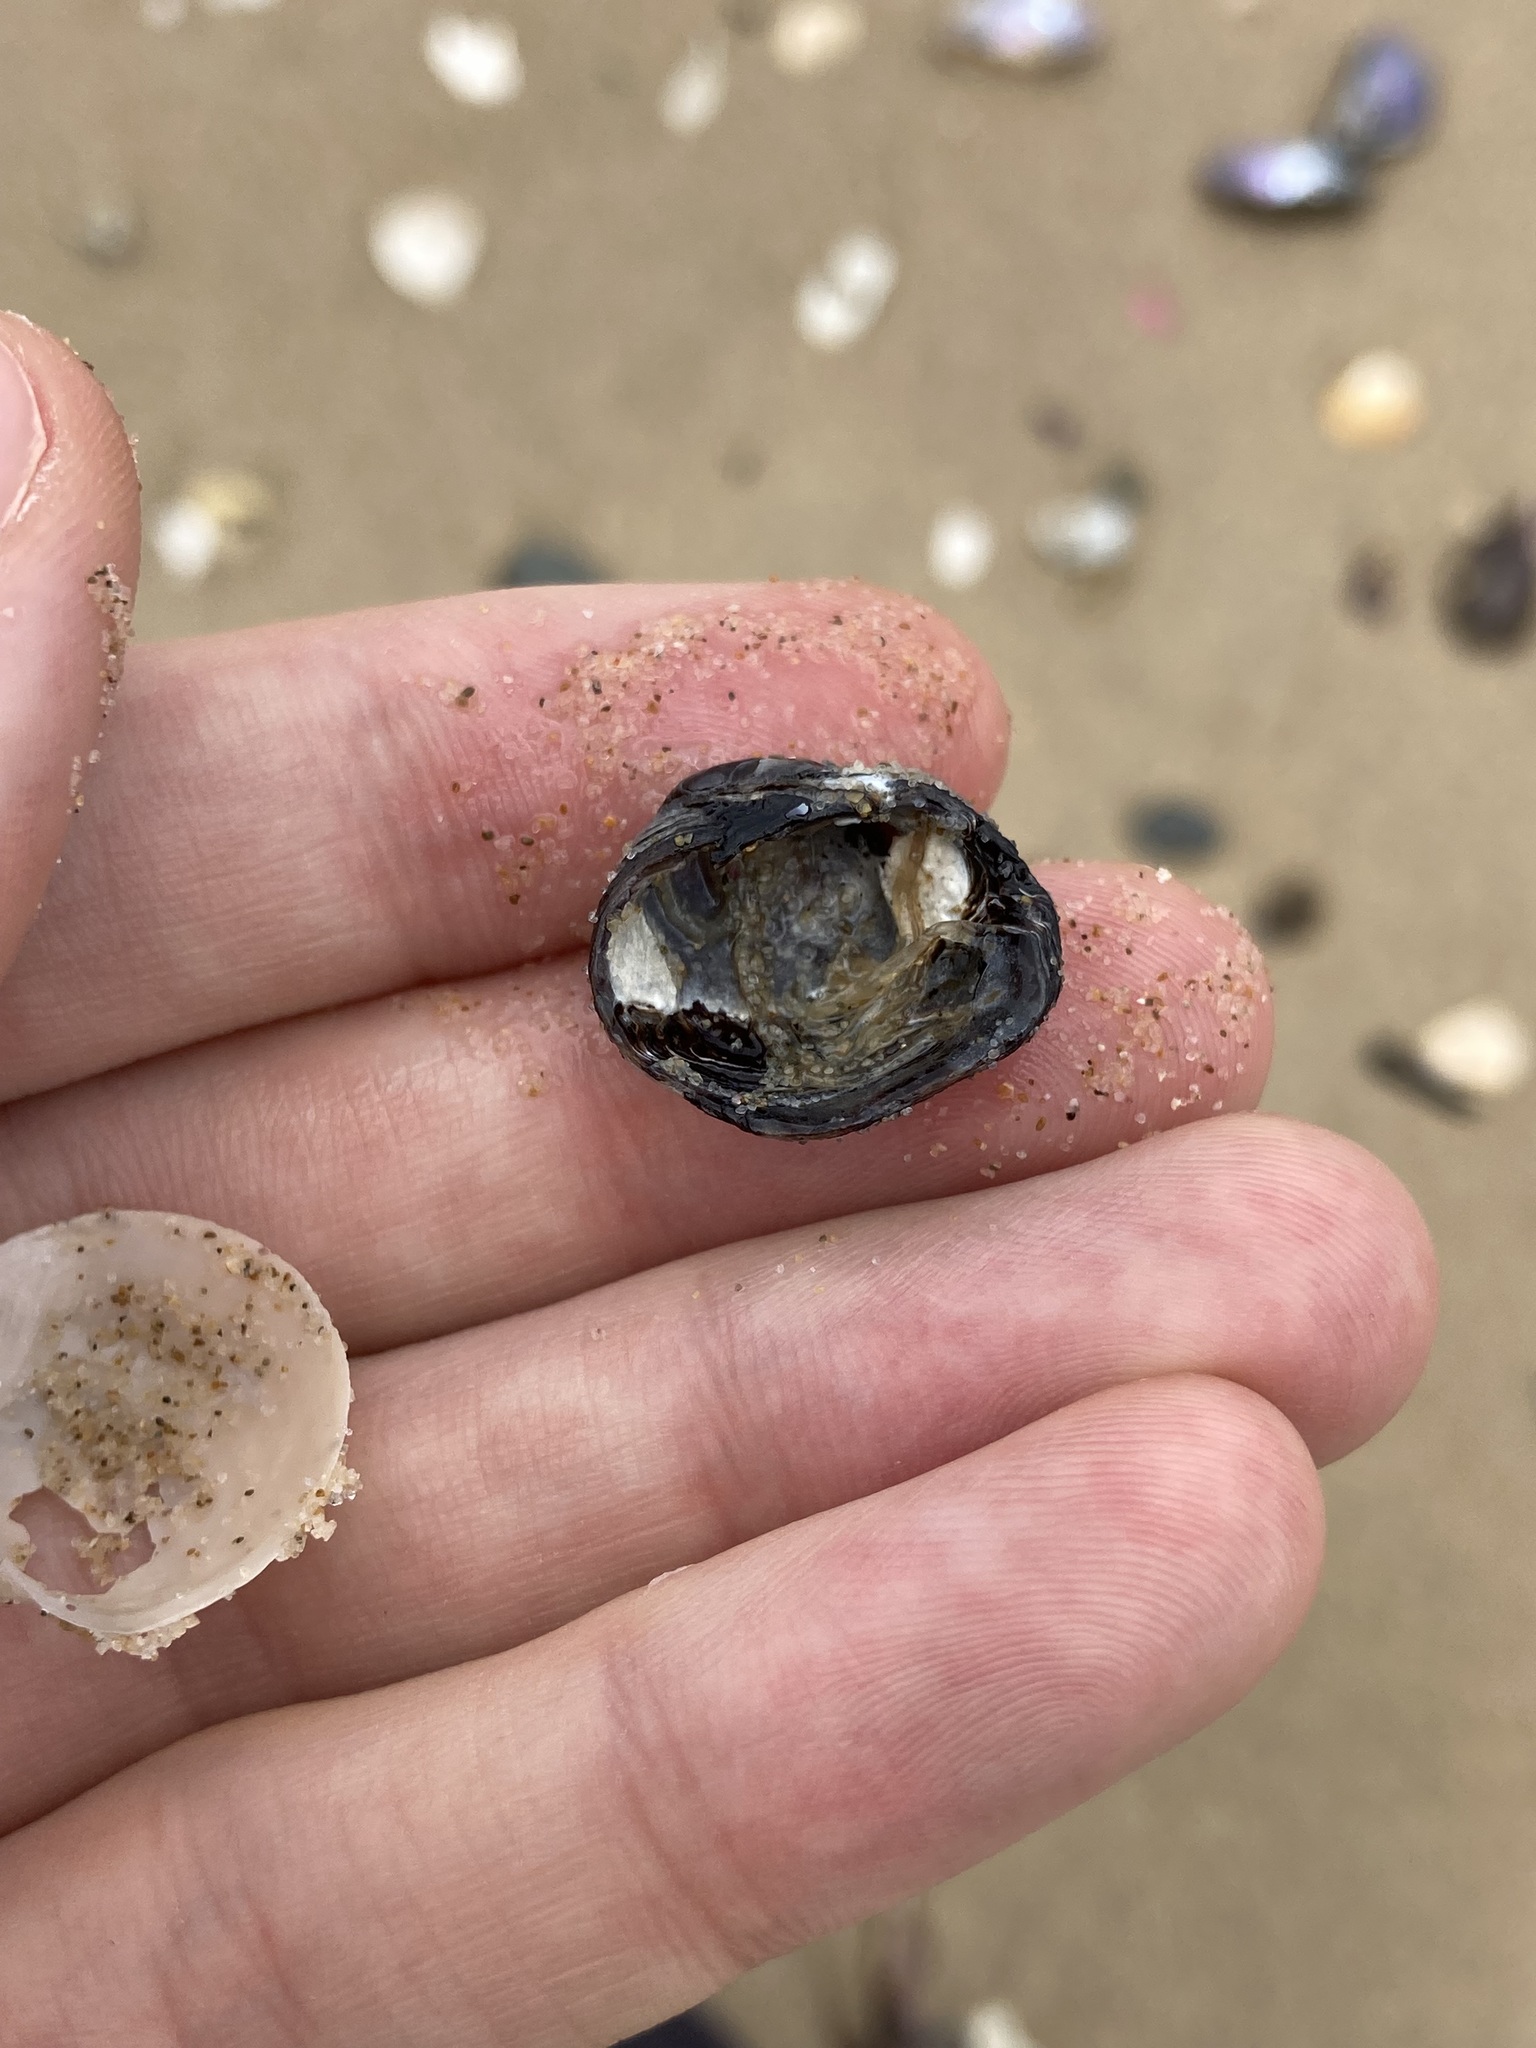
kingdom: Animalia
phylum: Mollusca
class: Bivalvia
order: Venerida
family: Veneridae
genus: Irus
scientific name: Irus cumingii
